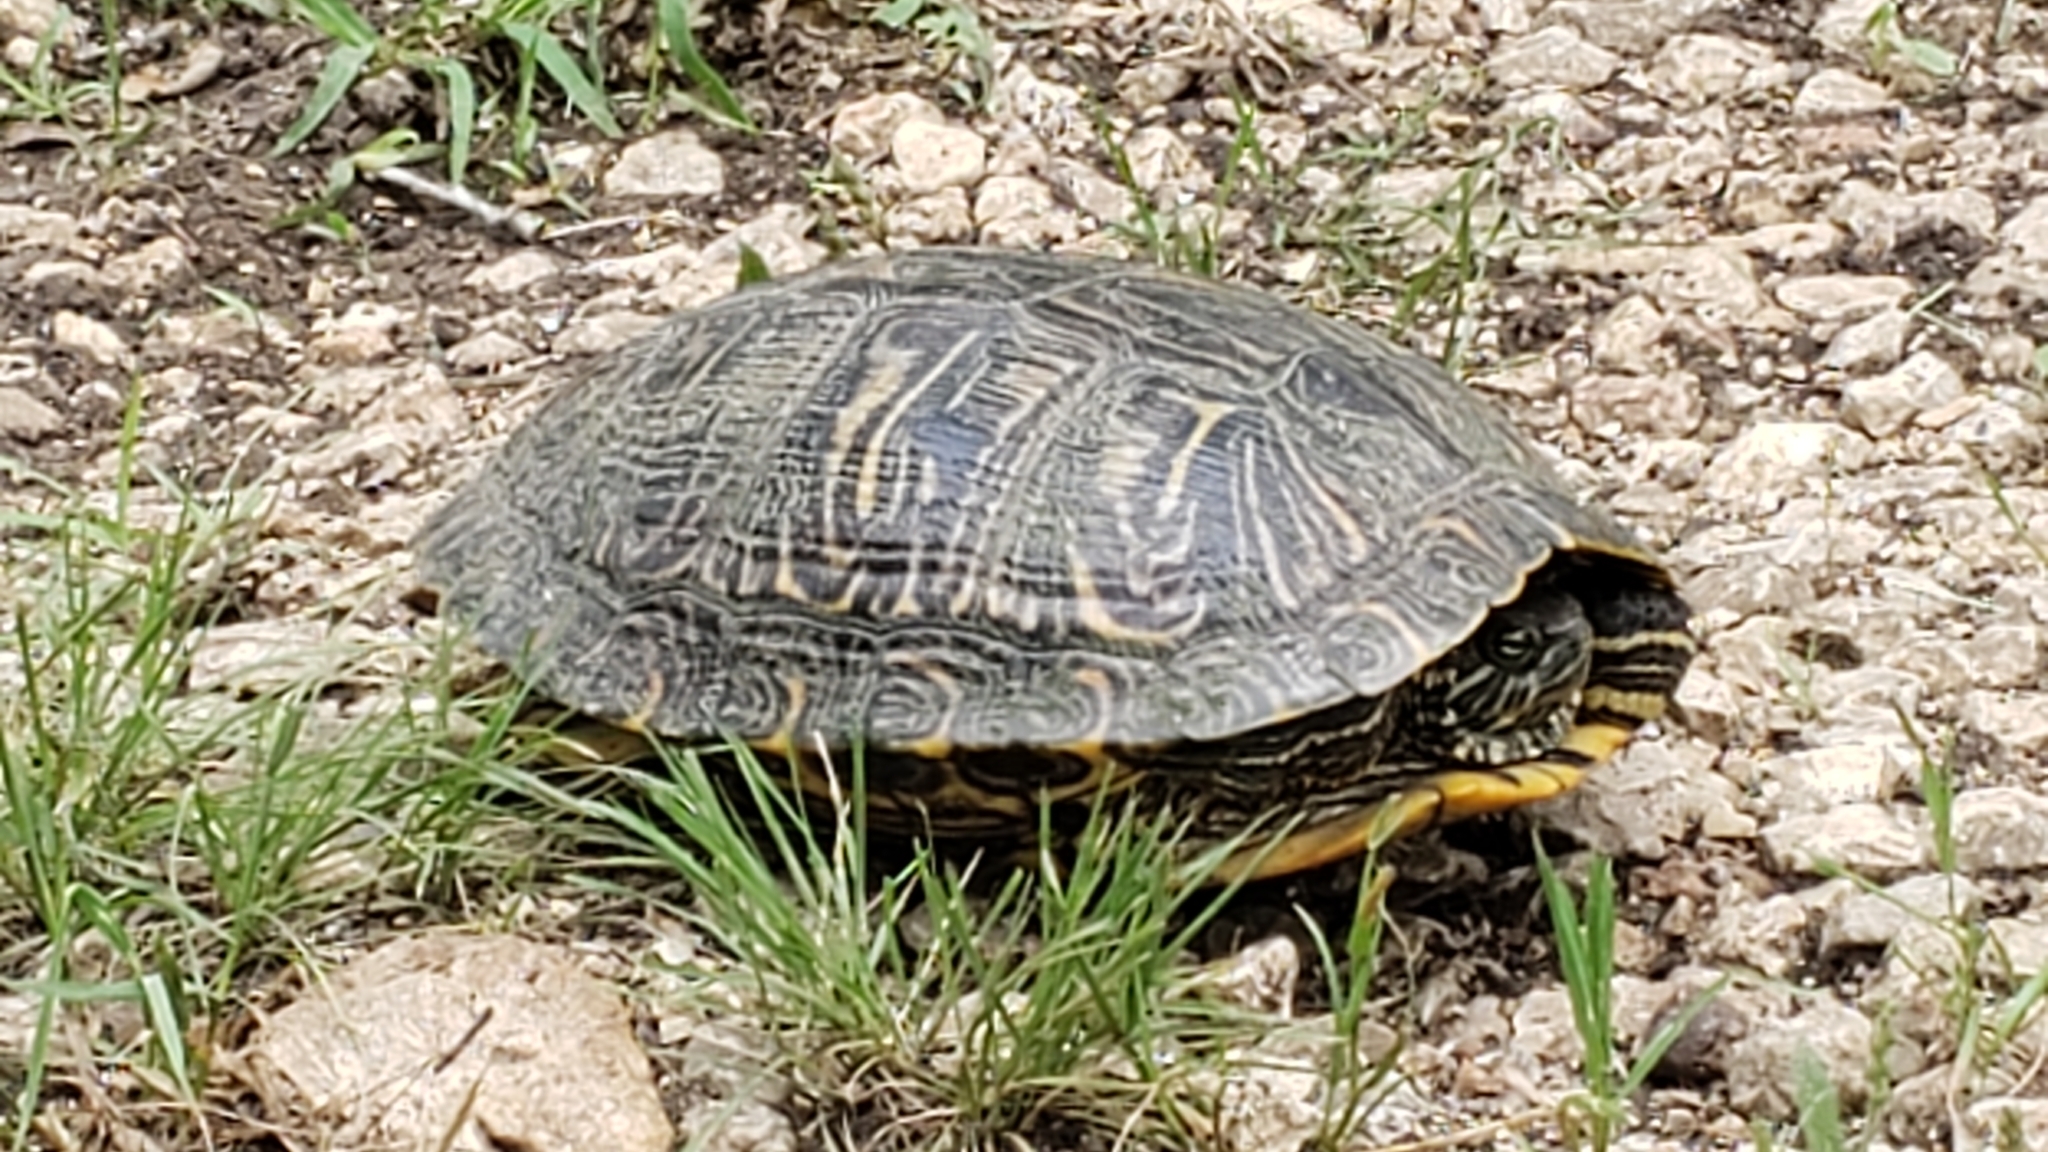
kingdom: Animalia
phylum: Chordata
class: Testudines
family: Emydidae
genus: Trachemys
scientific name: Trachemys scripta
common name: Slider
